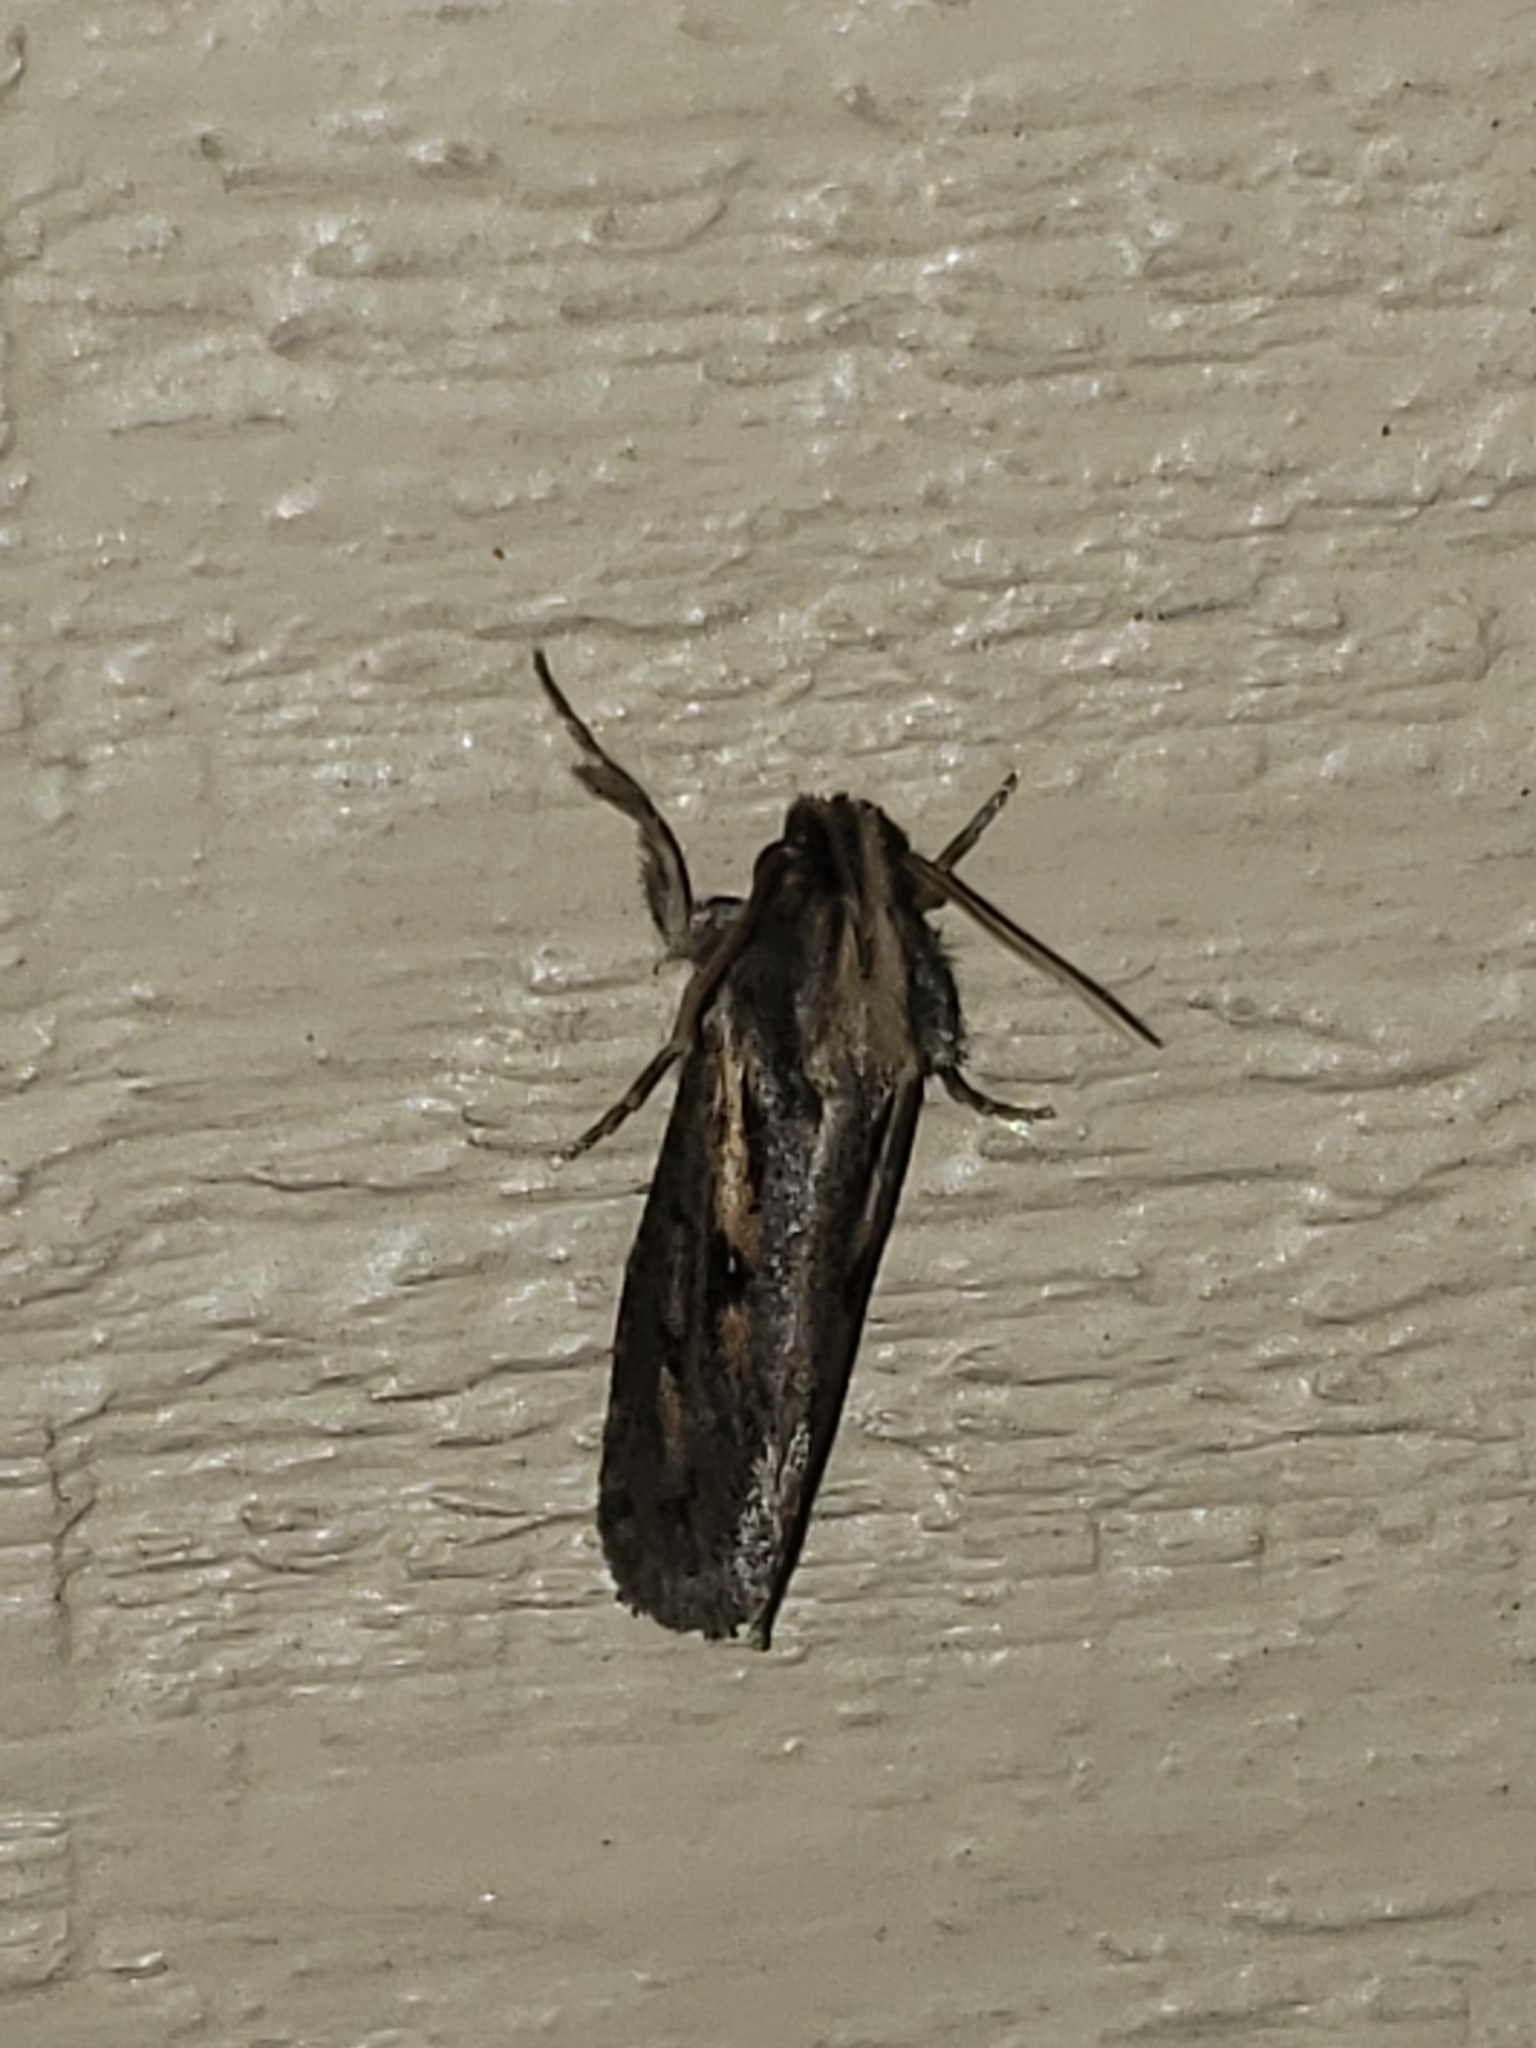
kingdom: Animalia
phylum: Arthropoda
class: Insecta
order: Lepidoptera
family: Tineidae
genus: Acrolophus
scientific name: Acrolophus popeanella
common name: Clemens' grass tubeworm moth
